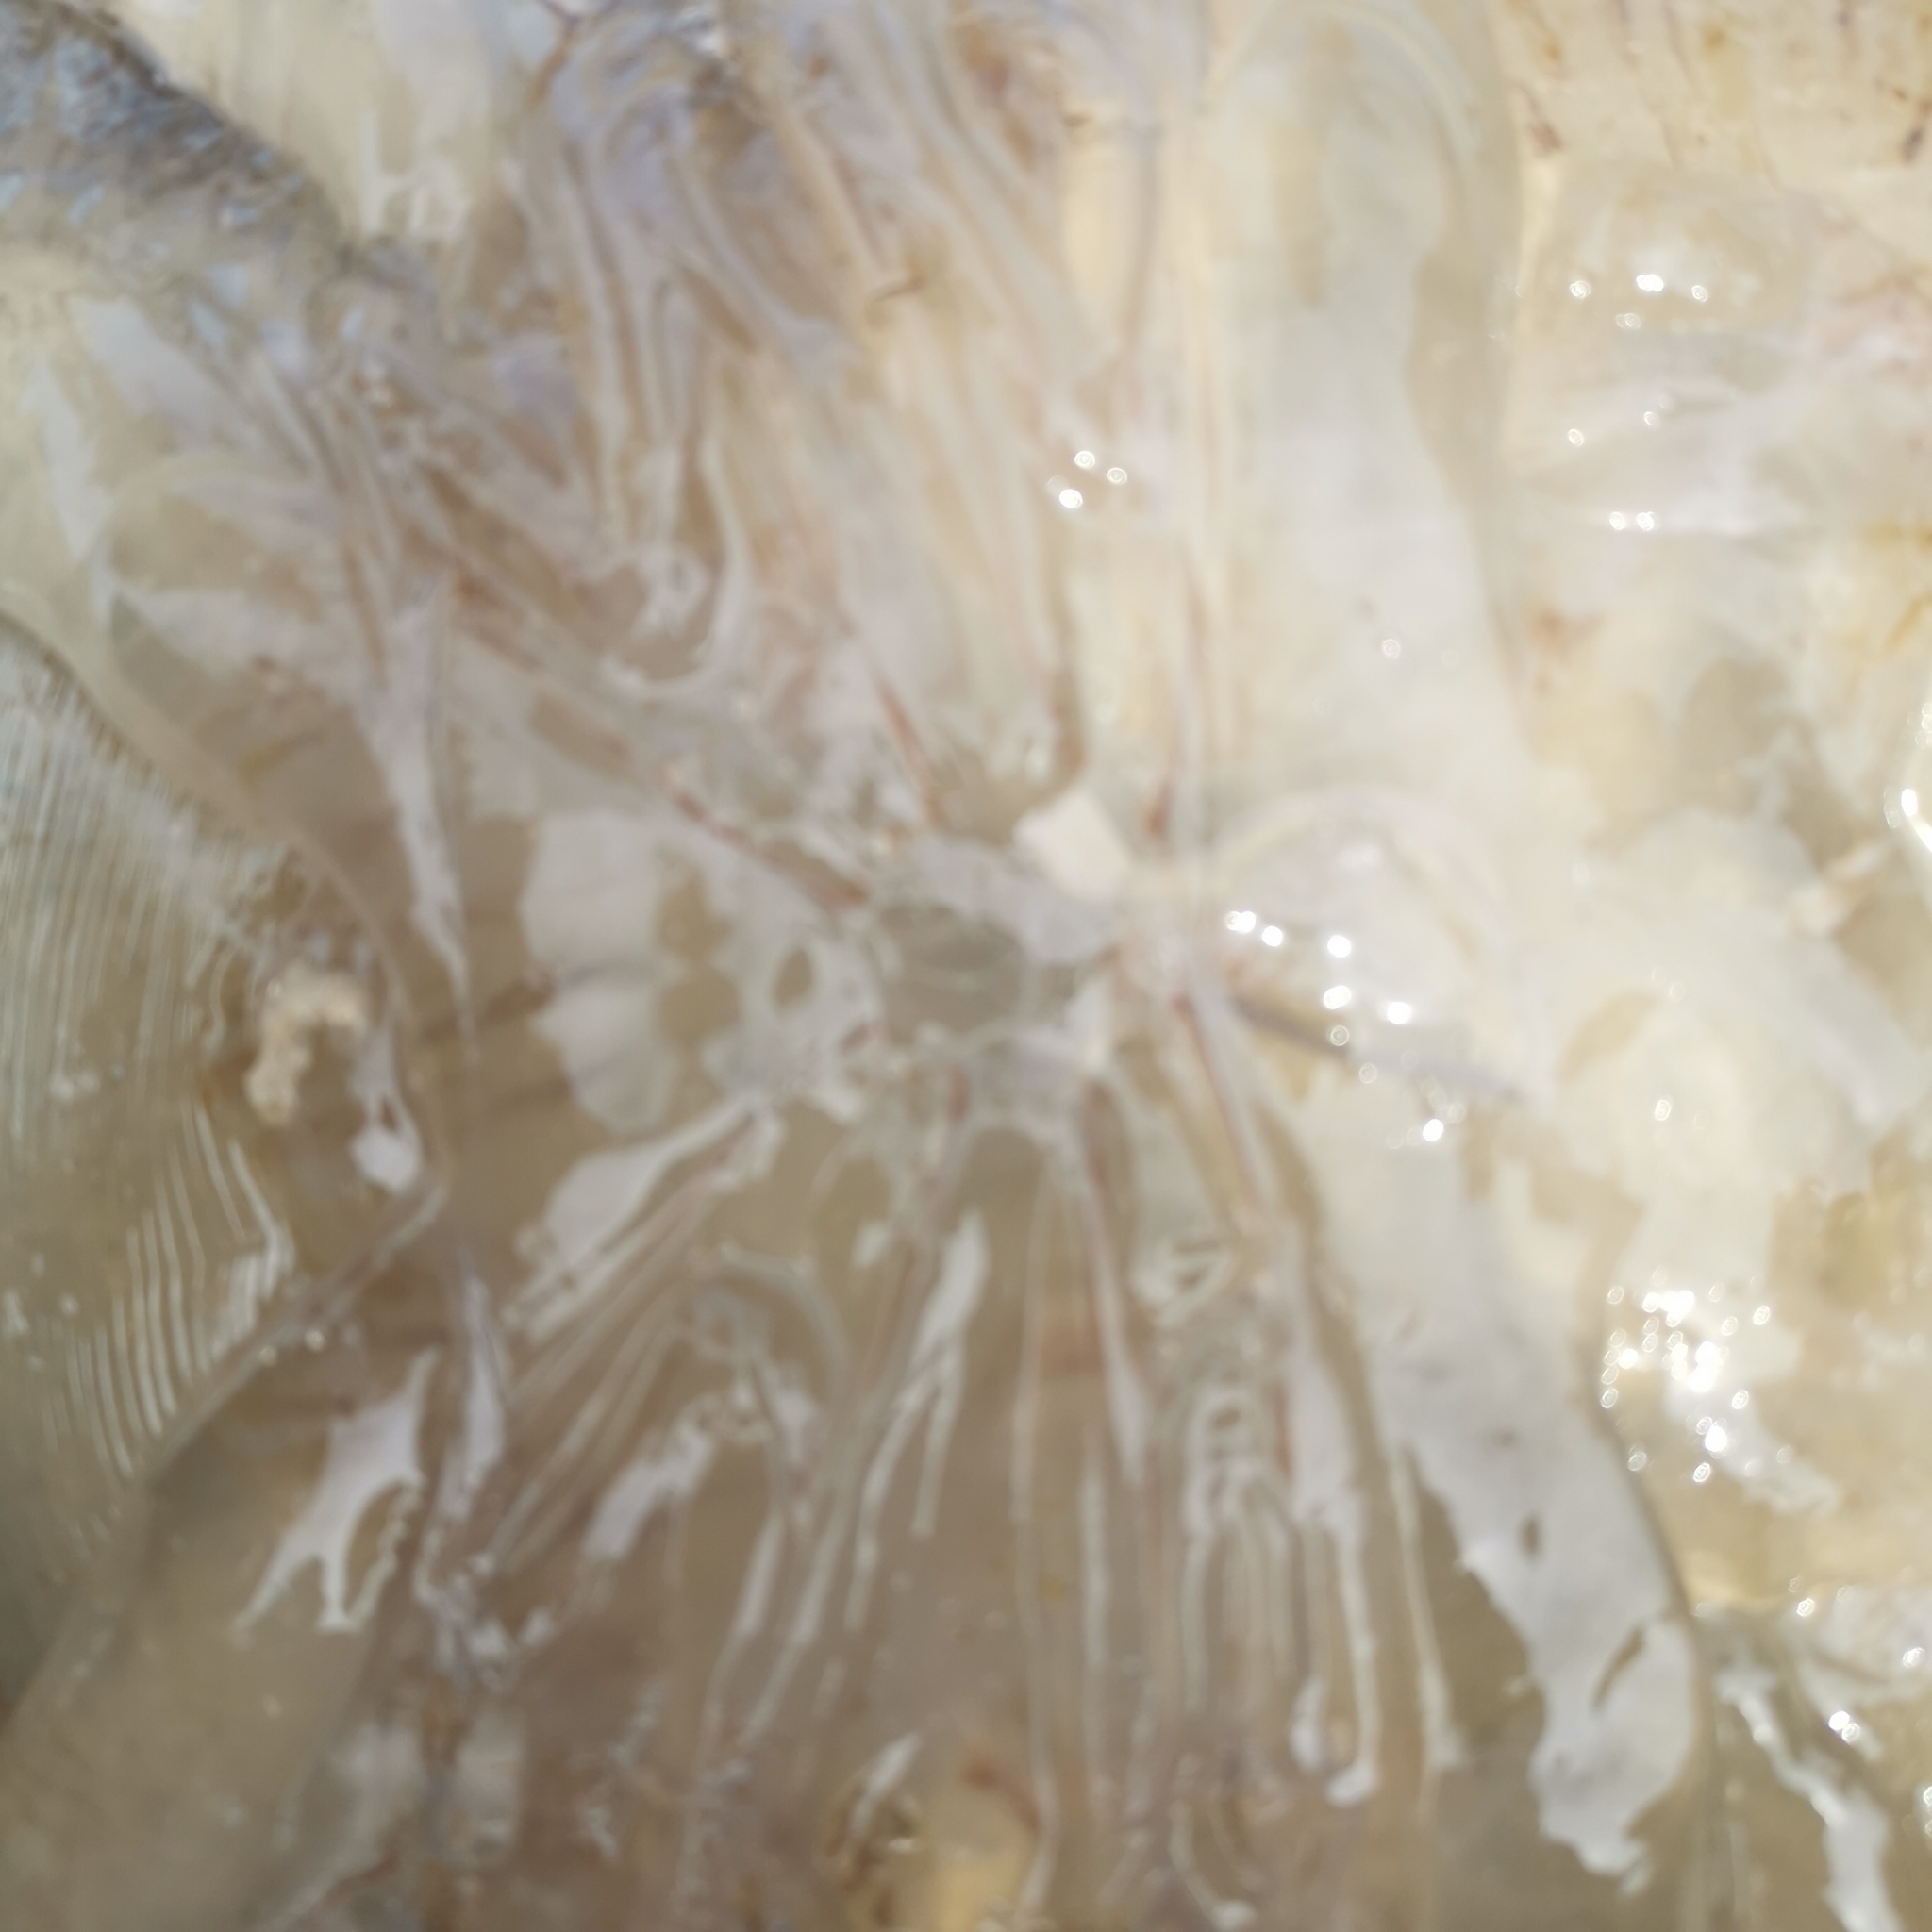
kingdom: Animalia
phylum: Cnidaria
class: Scyphozoa
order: Rhizostomeae
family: Lychnorhizidae
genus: Pseudorhiza
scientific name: Pseudorhiza haeckeli
